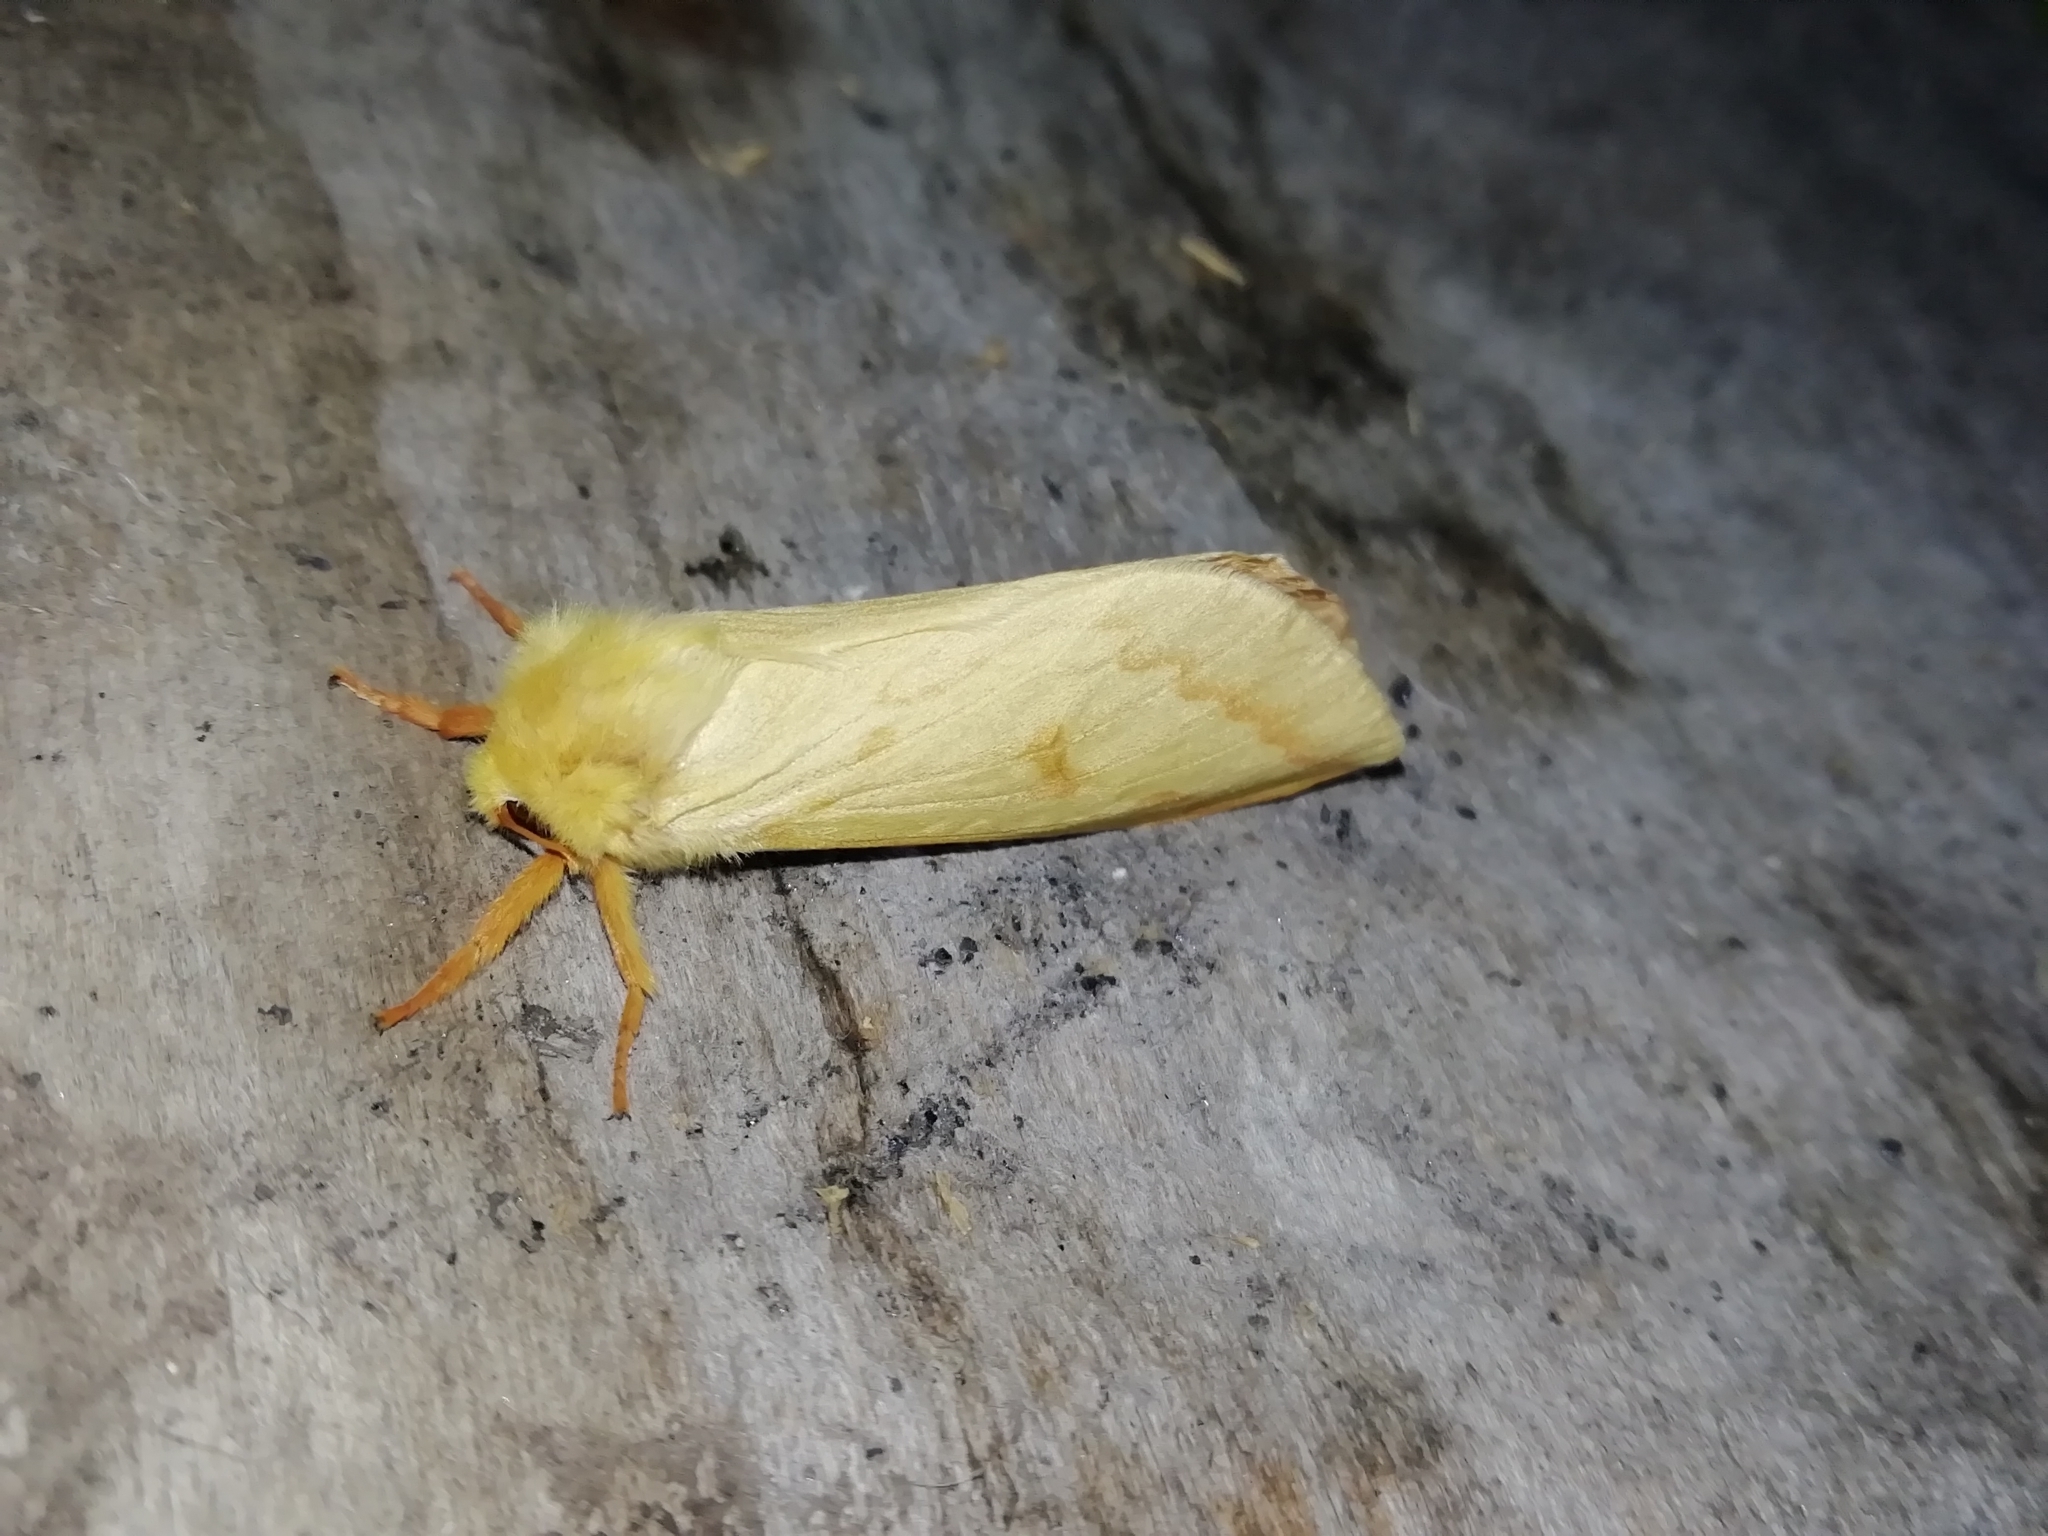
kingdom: Animalia
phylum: Arthropoda
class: Insecta
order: Lepidoptera
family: Hepialidae
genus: Hepialus
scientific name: Hepialus humuli
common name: Ghost moth
